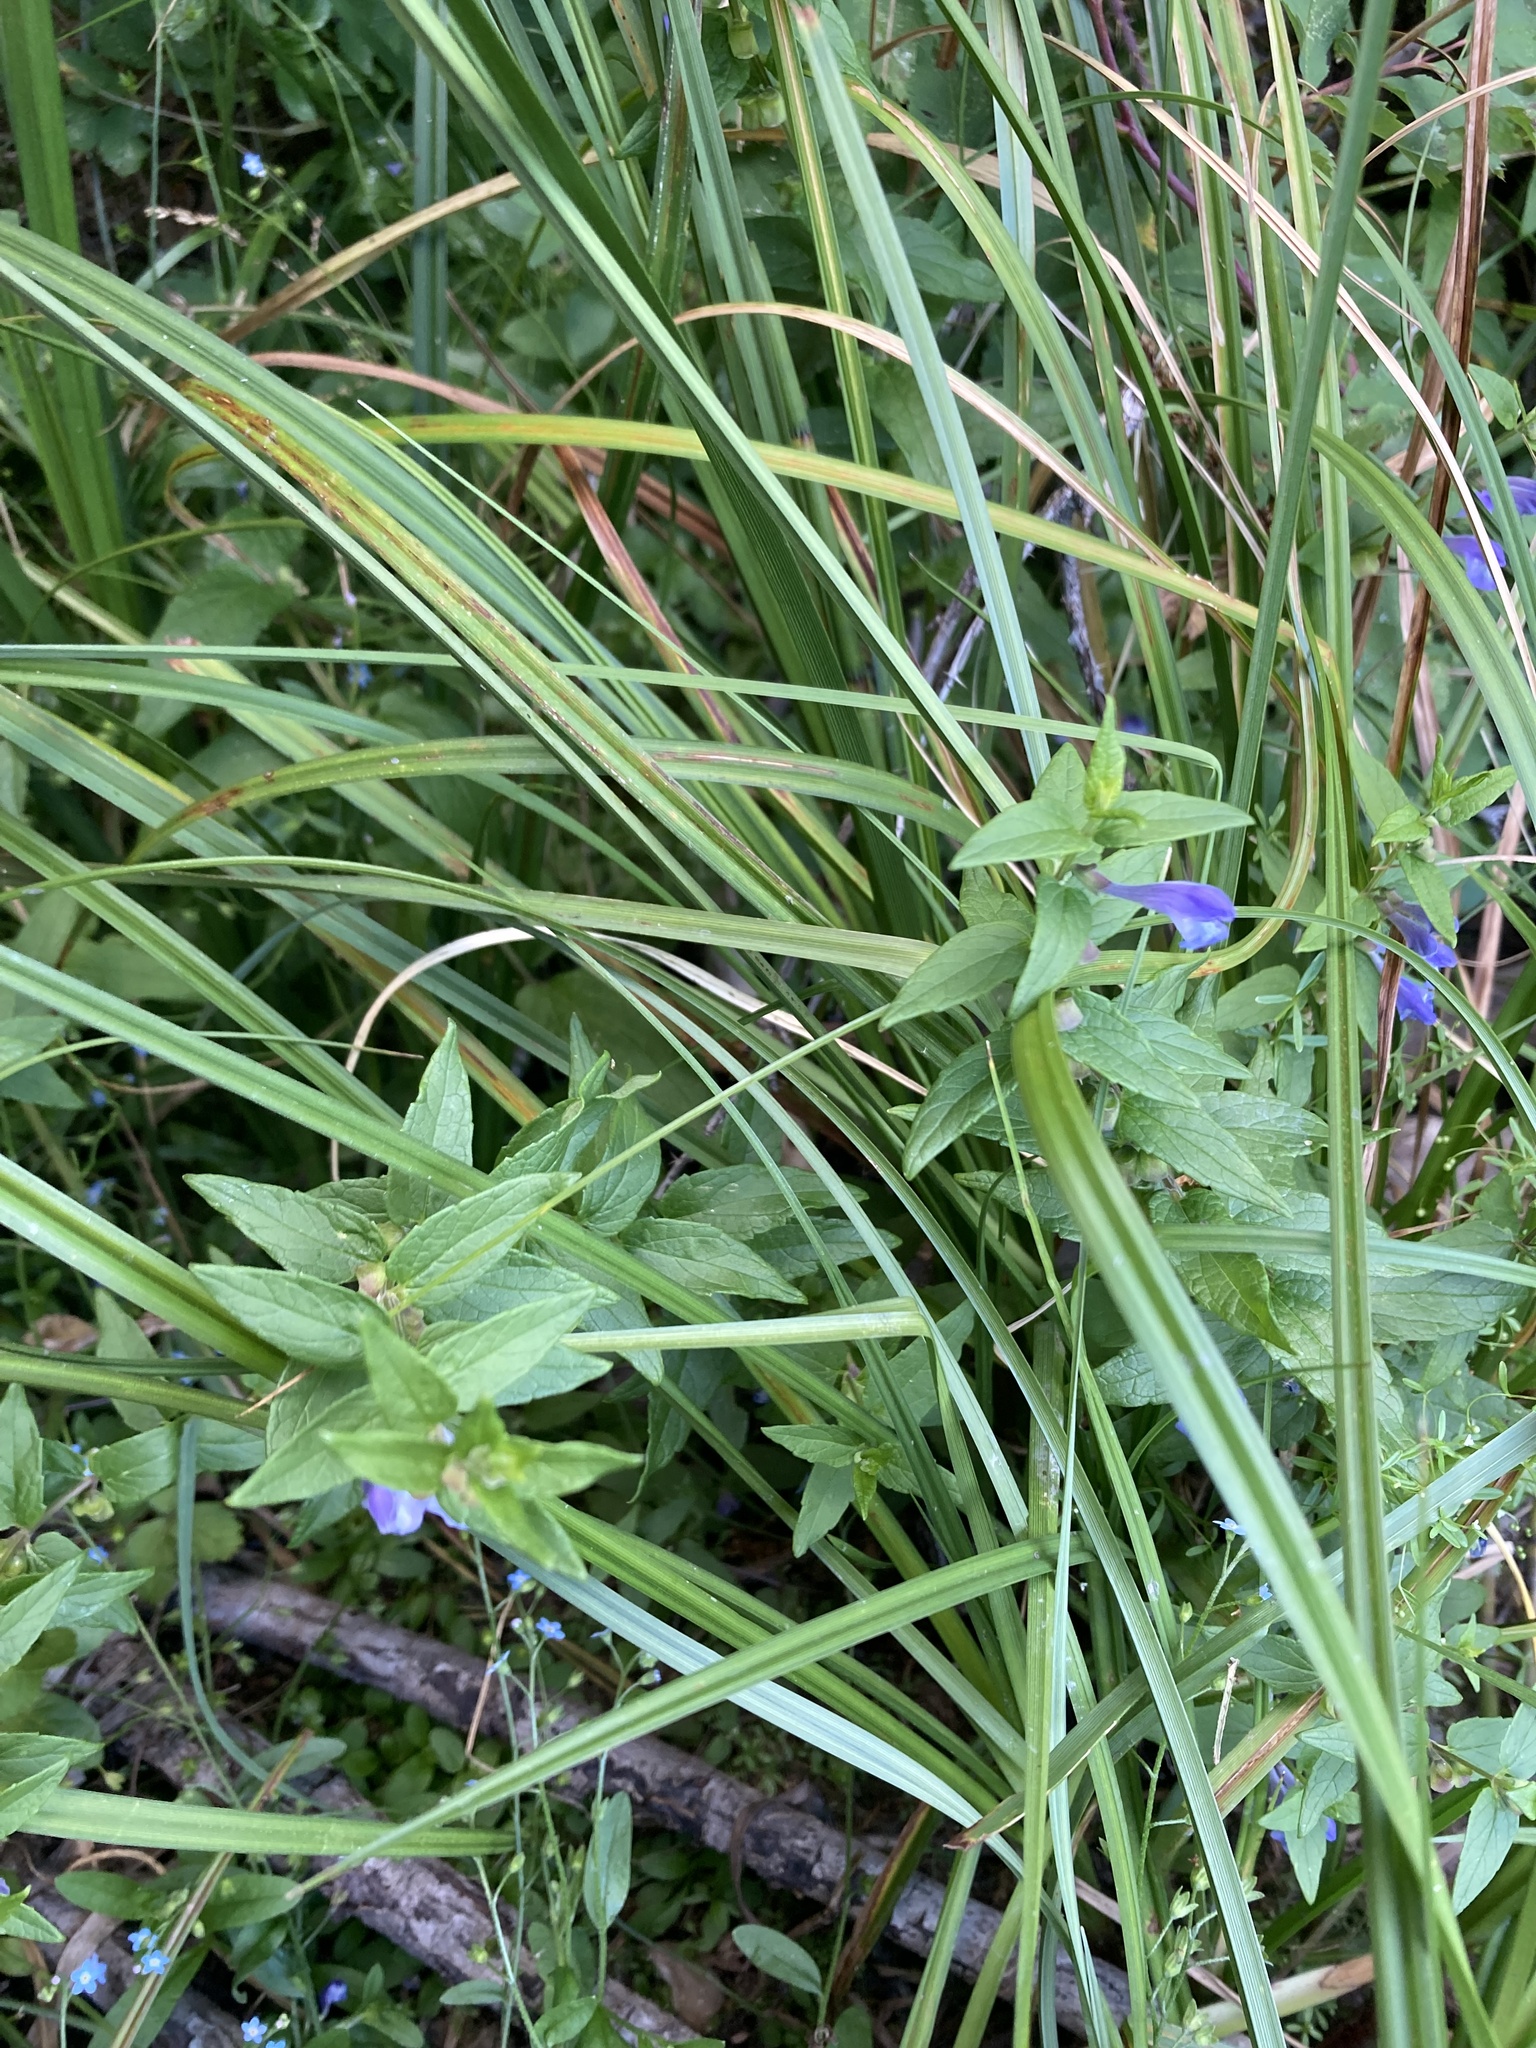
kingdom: Plantae
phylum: Tracheophyta
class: Magnoliopsida
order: Lamiales
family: Lamiaceae
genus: Scutellaria
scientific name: Scutellaria galericulata
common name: Skullcap
